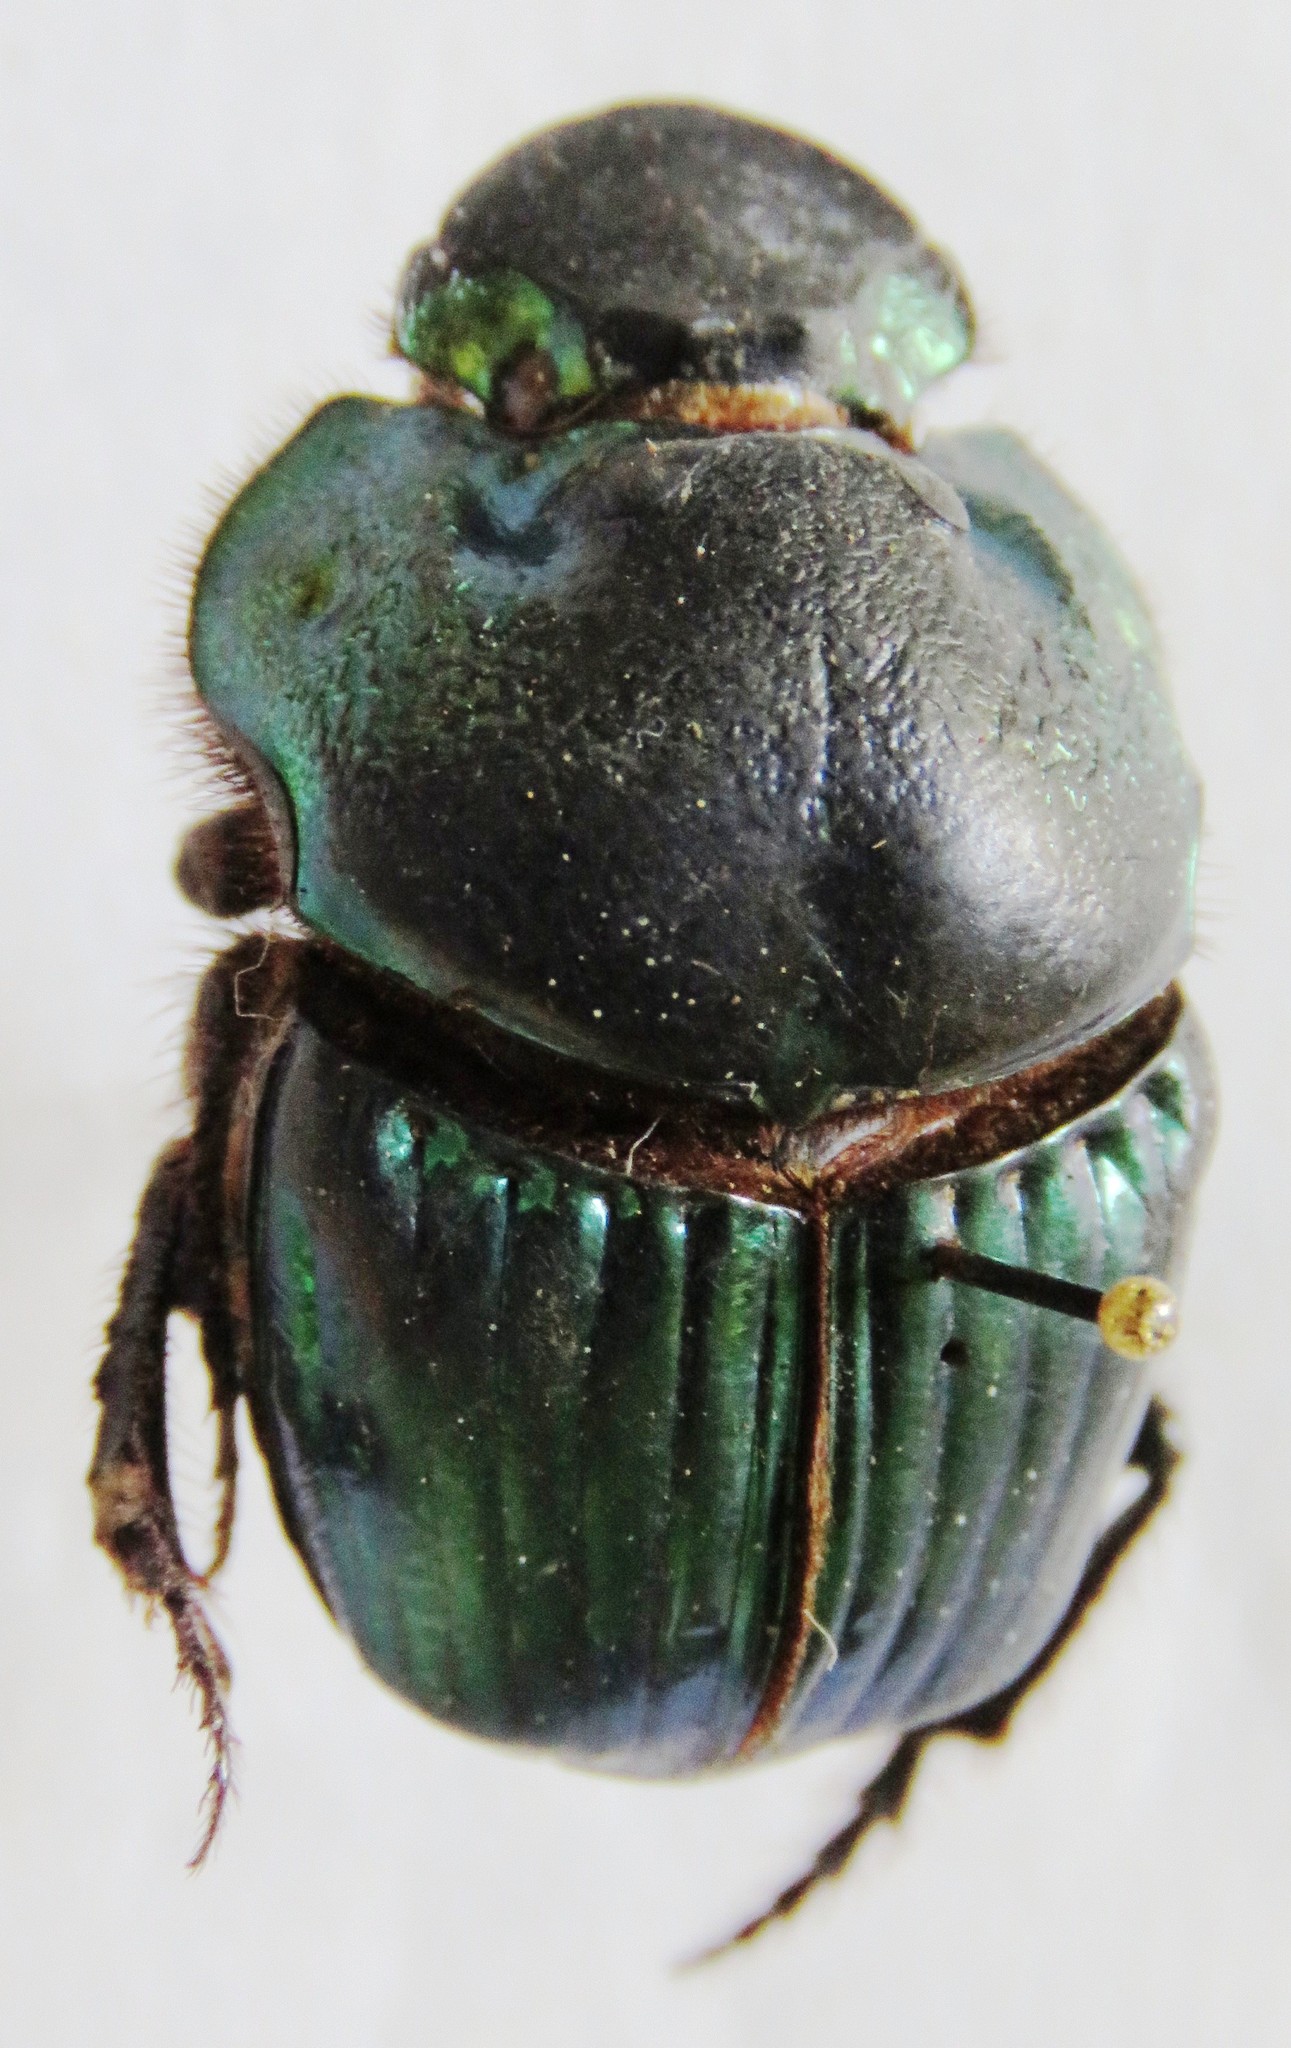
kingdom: Animalia
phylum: Arthropoda
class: Insecta
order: Coleoptera
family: Scarabaeidae
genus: Phanaeus
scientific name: Phanaeus excelsus
